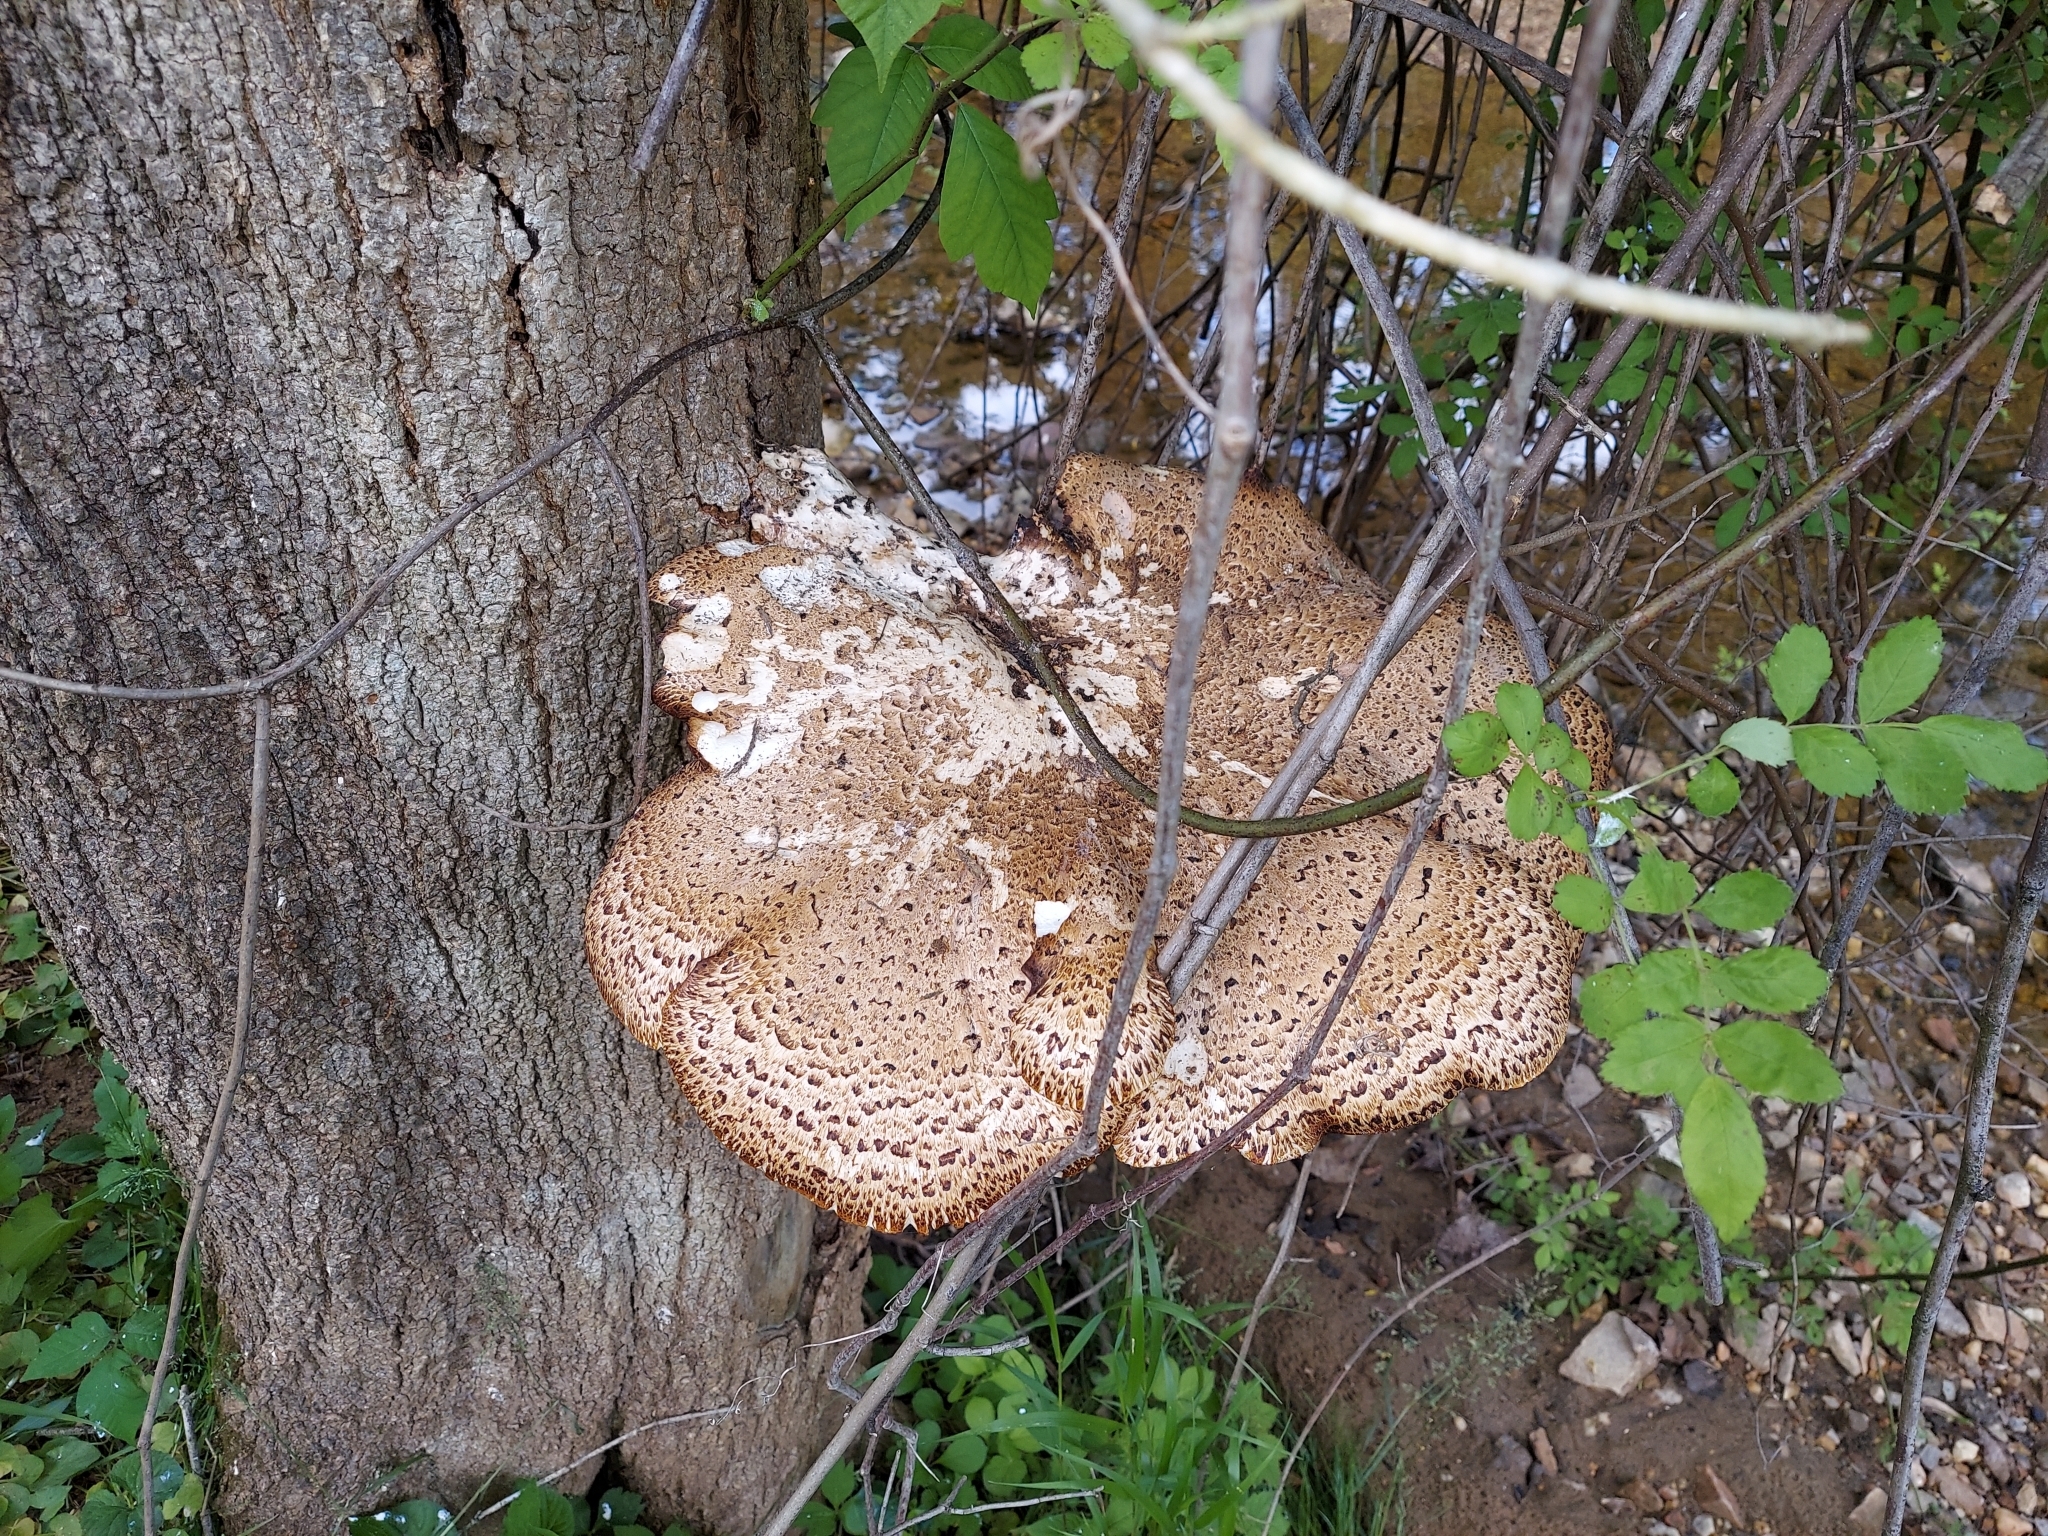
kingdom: Fungi
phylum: Basidiomycota
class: Agaricomycetes
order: Polyporales
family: Polyporaceae
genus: Cerioporus
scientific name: Cerioporus squamosus
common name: Dryad's saddle
